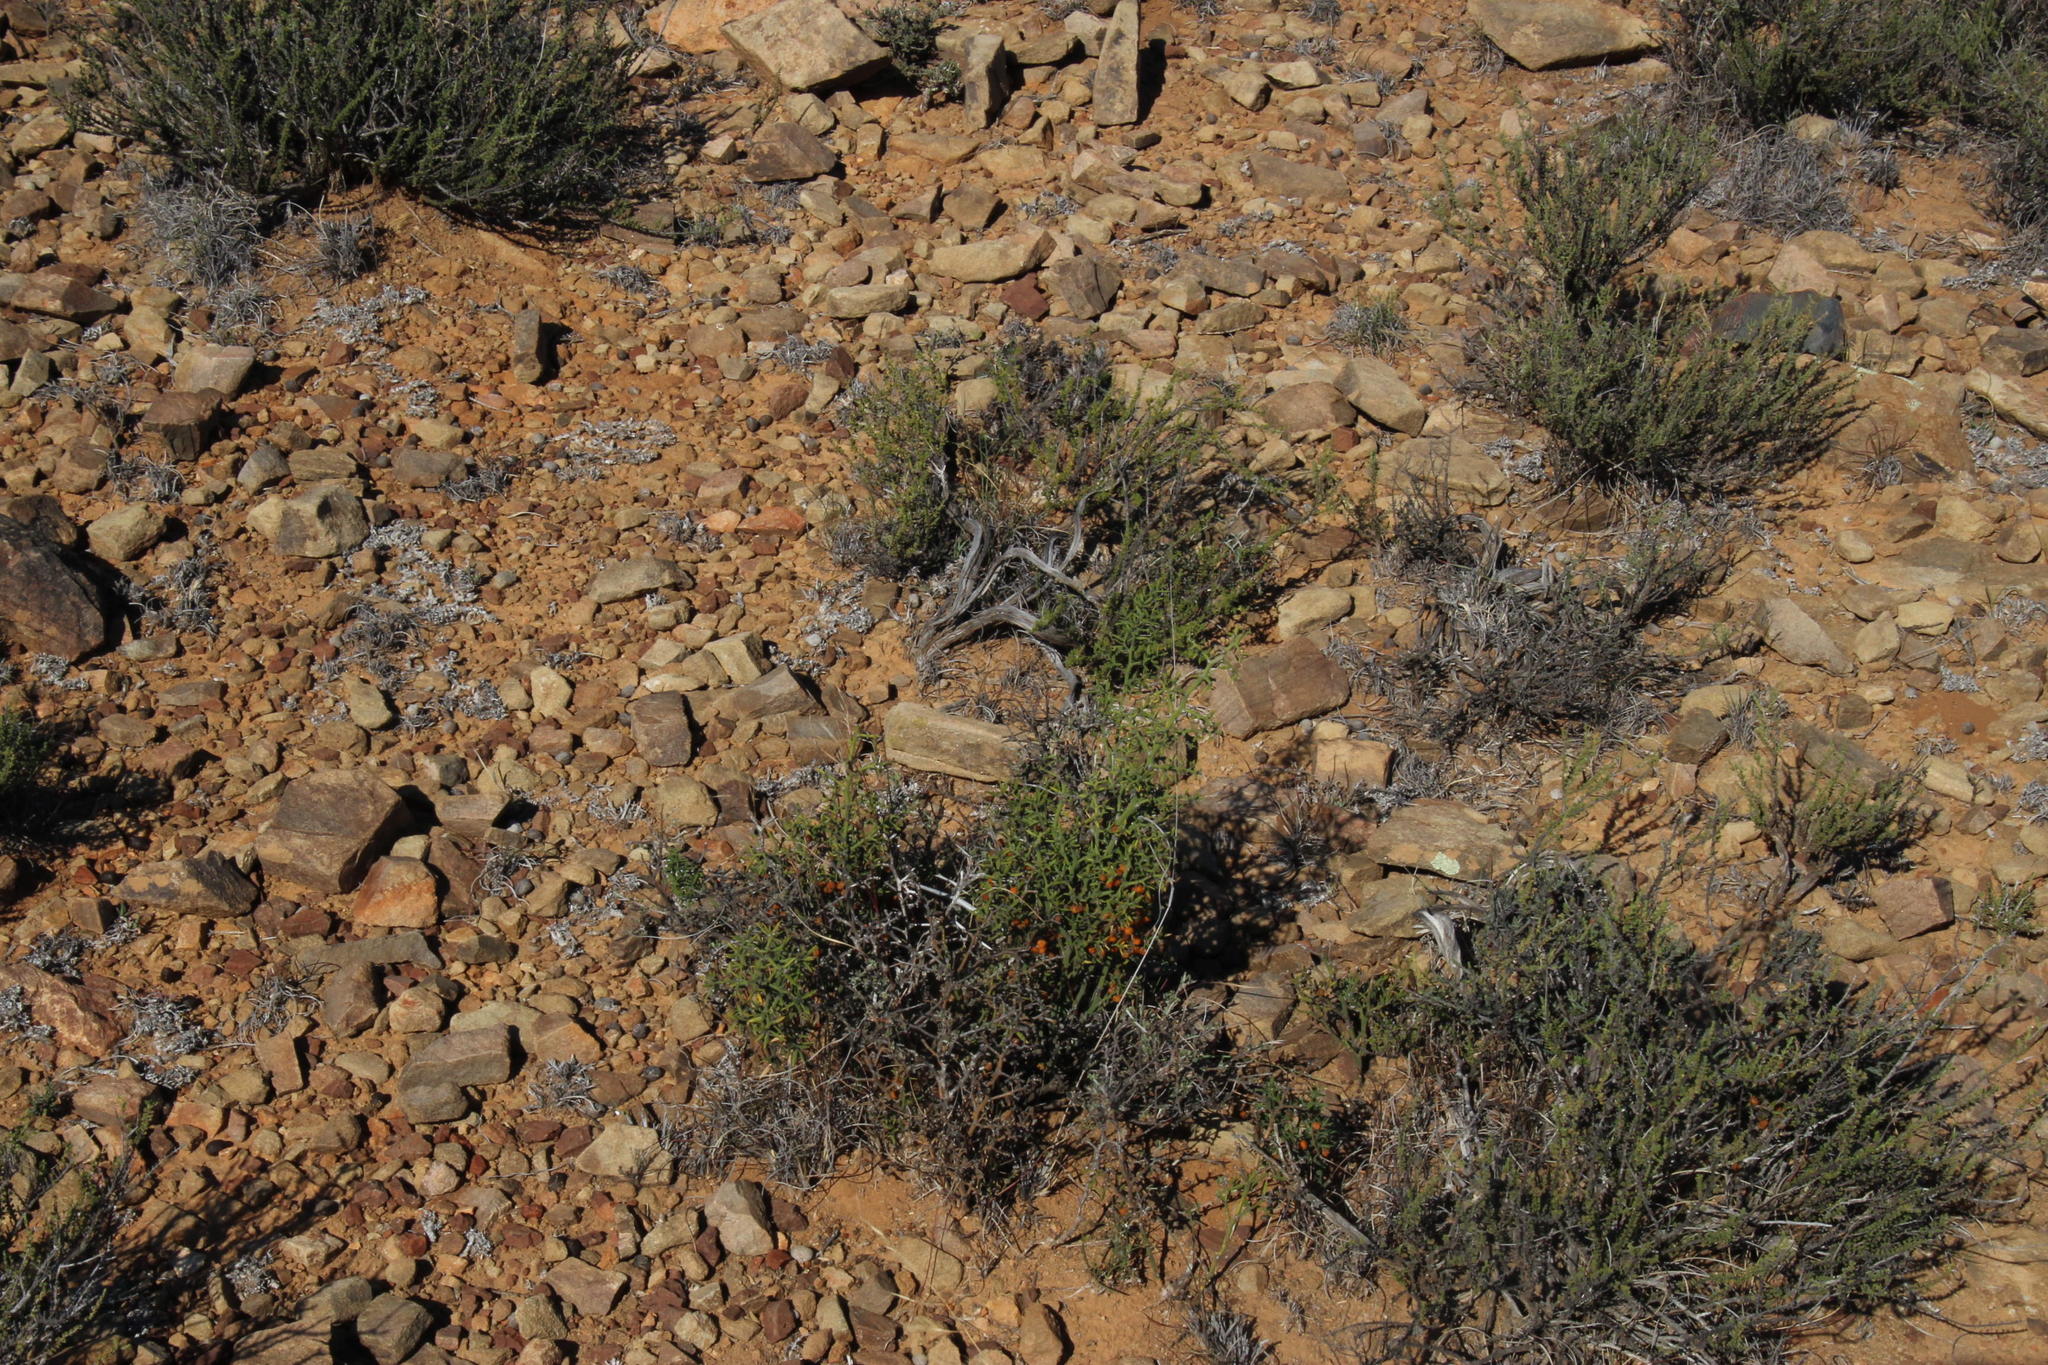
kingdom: Plantae
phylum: Tracheophyta
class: Liliopsida
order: Asparagales
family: Asparagaceae
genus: Asparagus
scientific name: Asparagus striatus
